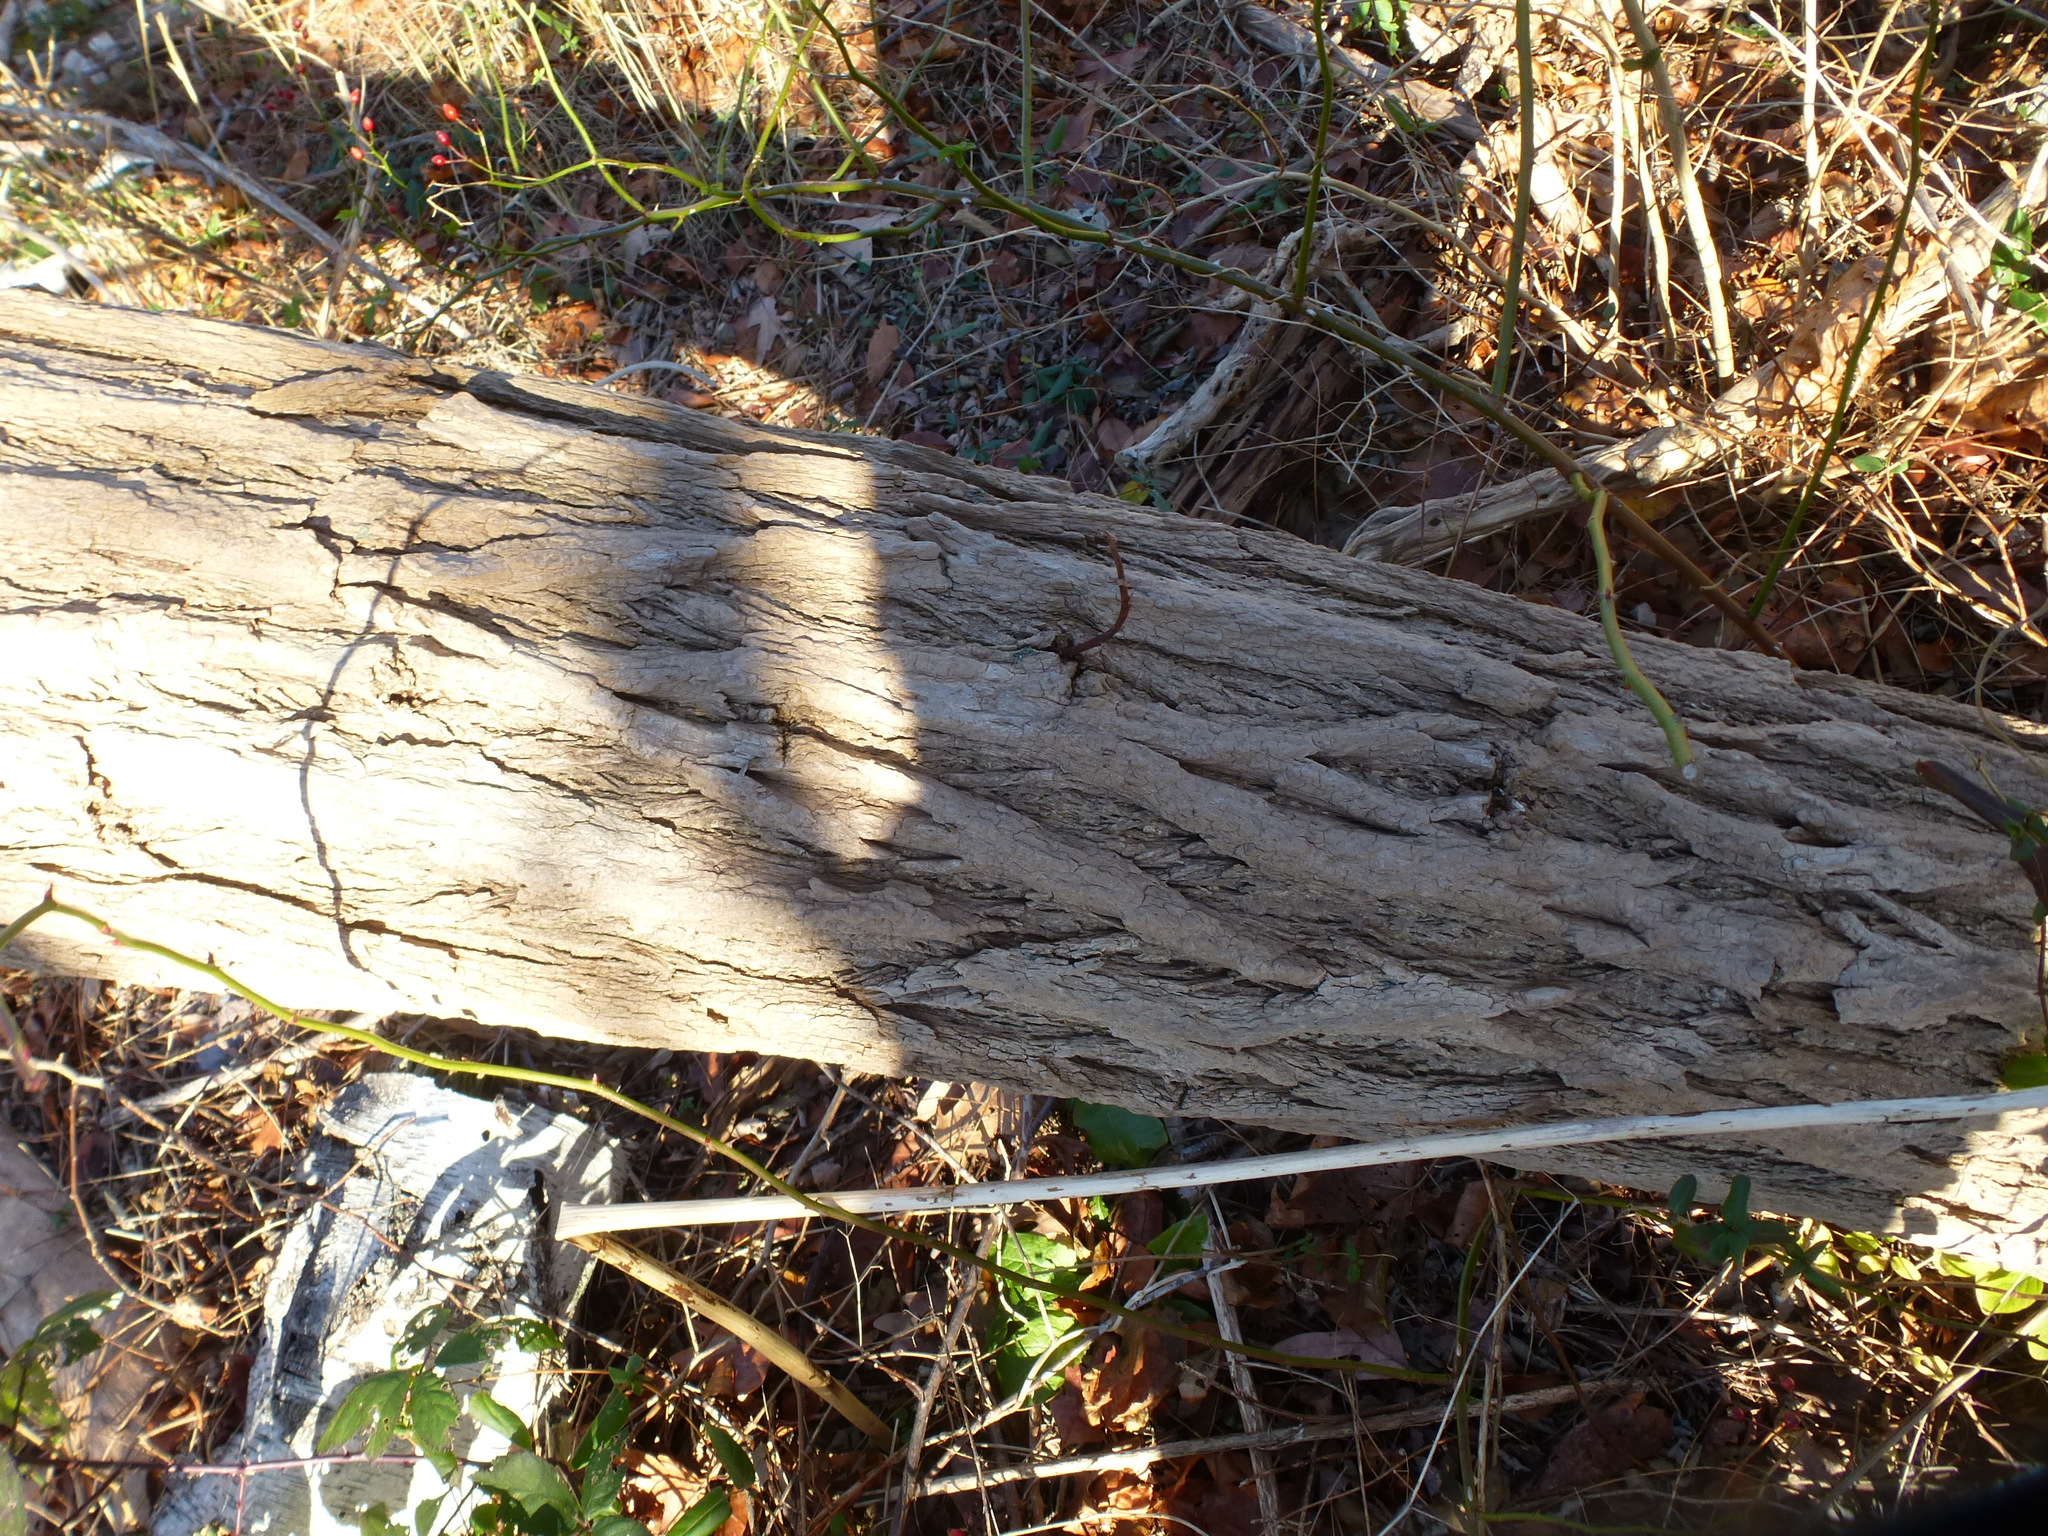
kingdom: Plantae
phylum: Tracheophyta
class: Magnoliopsida
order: Fabales
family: Fabaceae
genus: Robinia
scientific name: Robinia pseudoacacia
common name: Black locust
